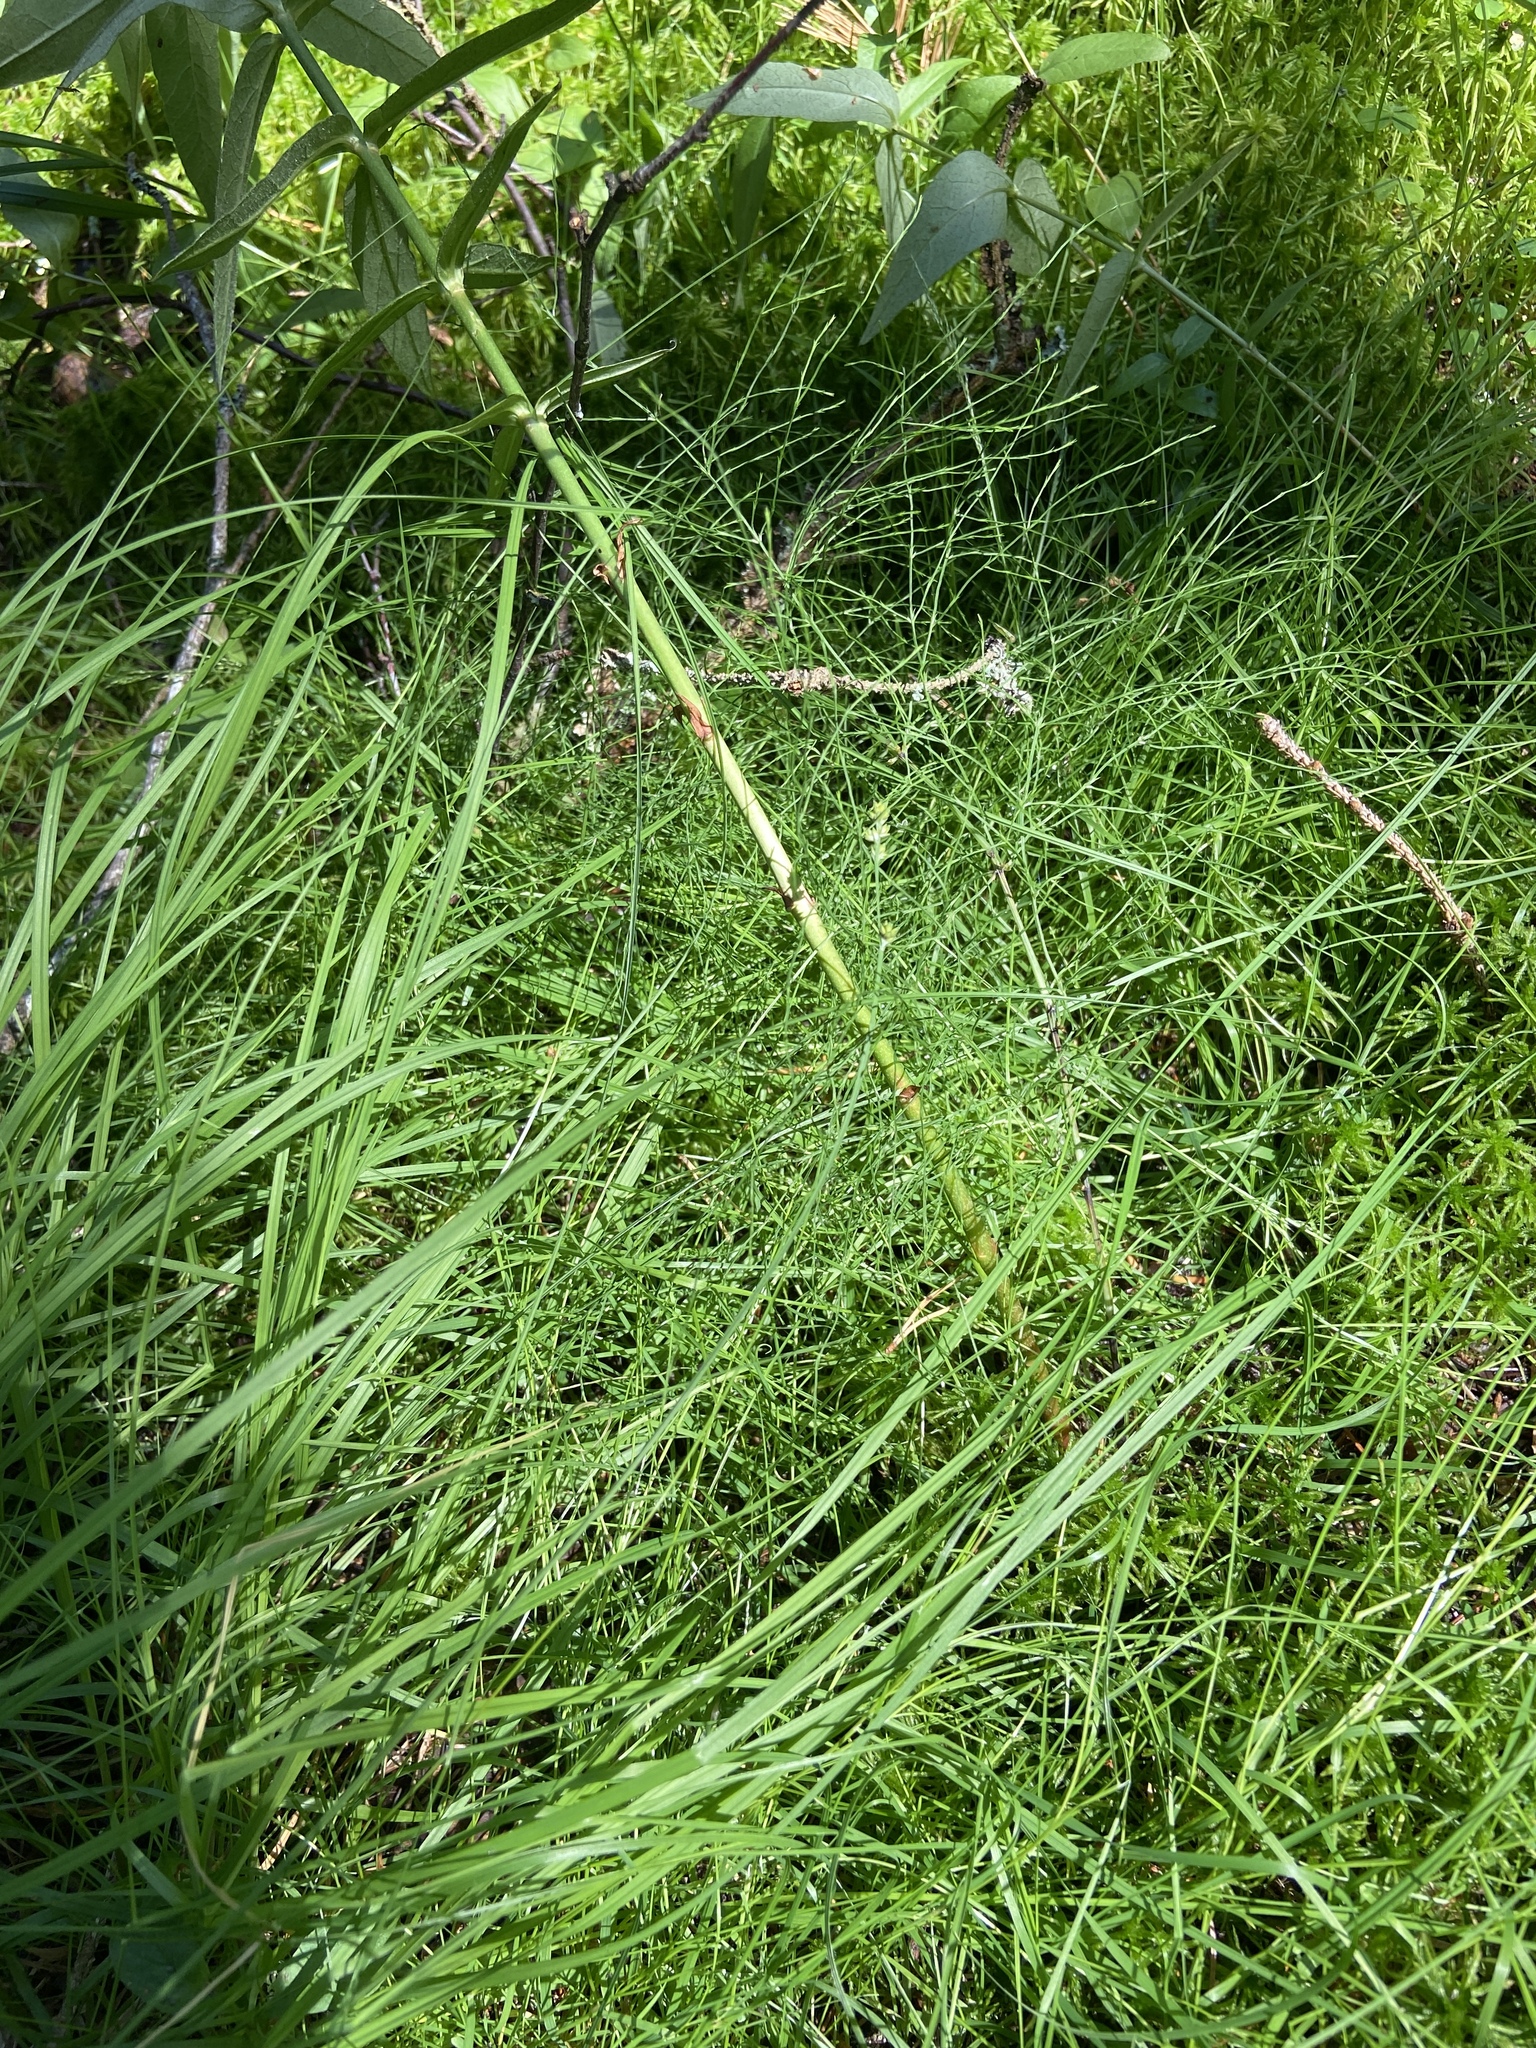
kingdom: Plantae
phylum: Tracheophyta
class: Polypodiopsida
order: Equisetales
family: Equisetaceae
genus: Equisetum
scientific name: Equisetum sylvaticum
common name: Wood horsetail
